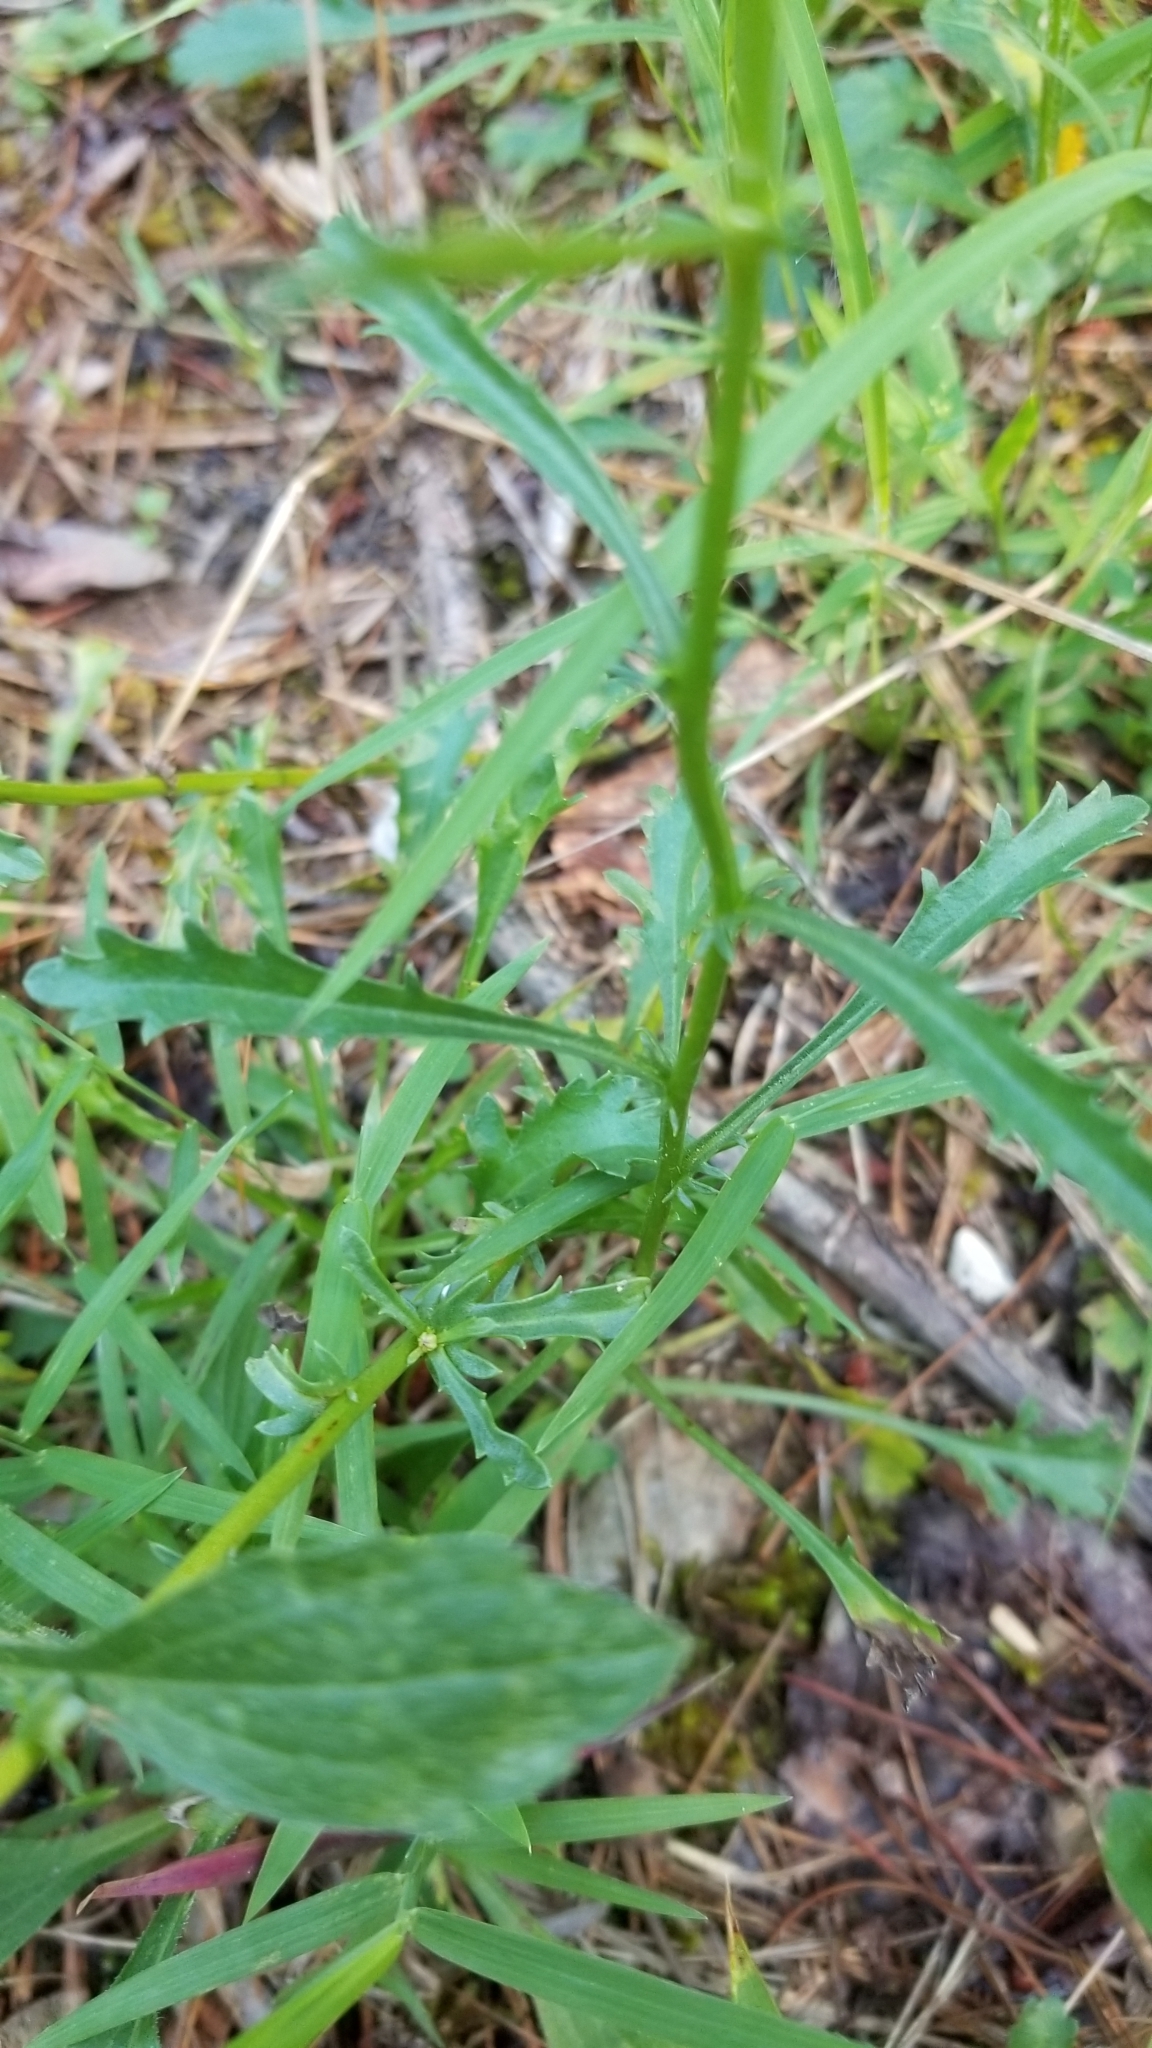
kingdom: Plantae
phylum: Tracheophyta
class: Magnoliopsida
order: Asterales
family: Asteraceae
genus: Leucanthemum
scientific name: Leucanthemum vulgare
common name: Oxeye daisy
